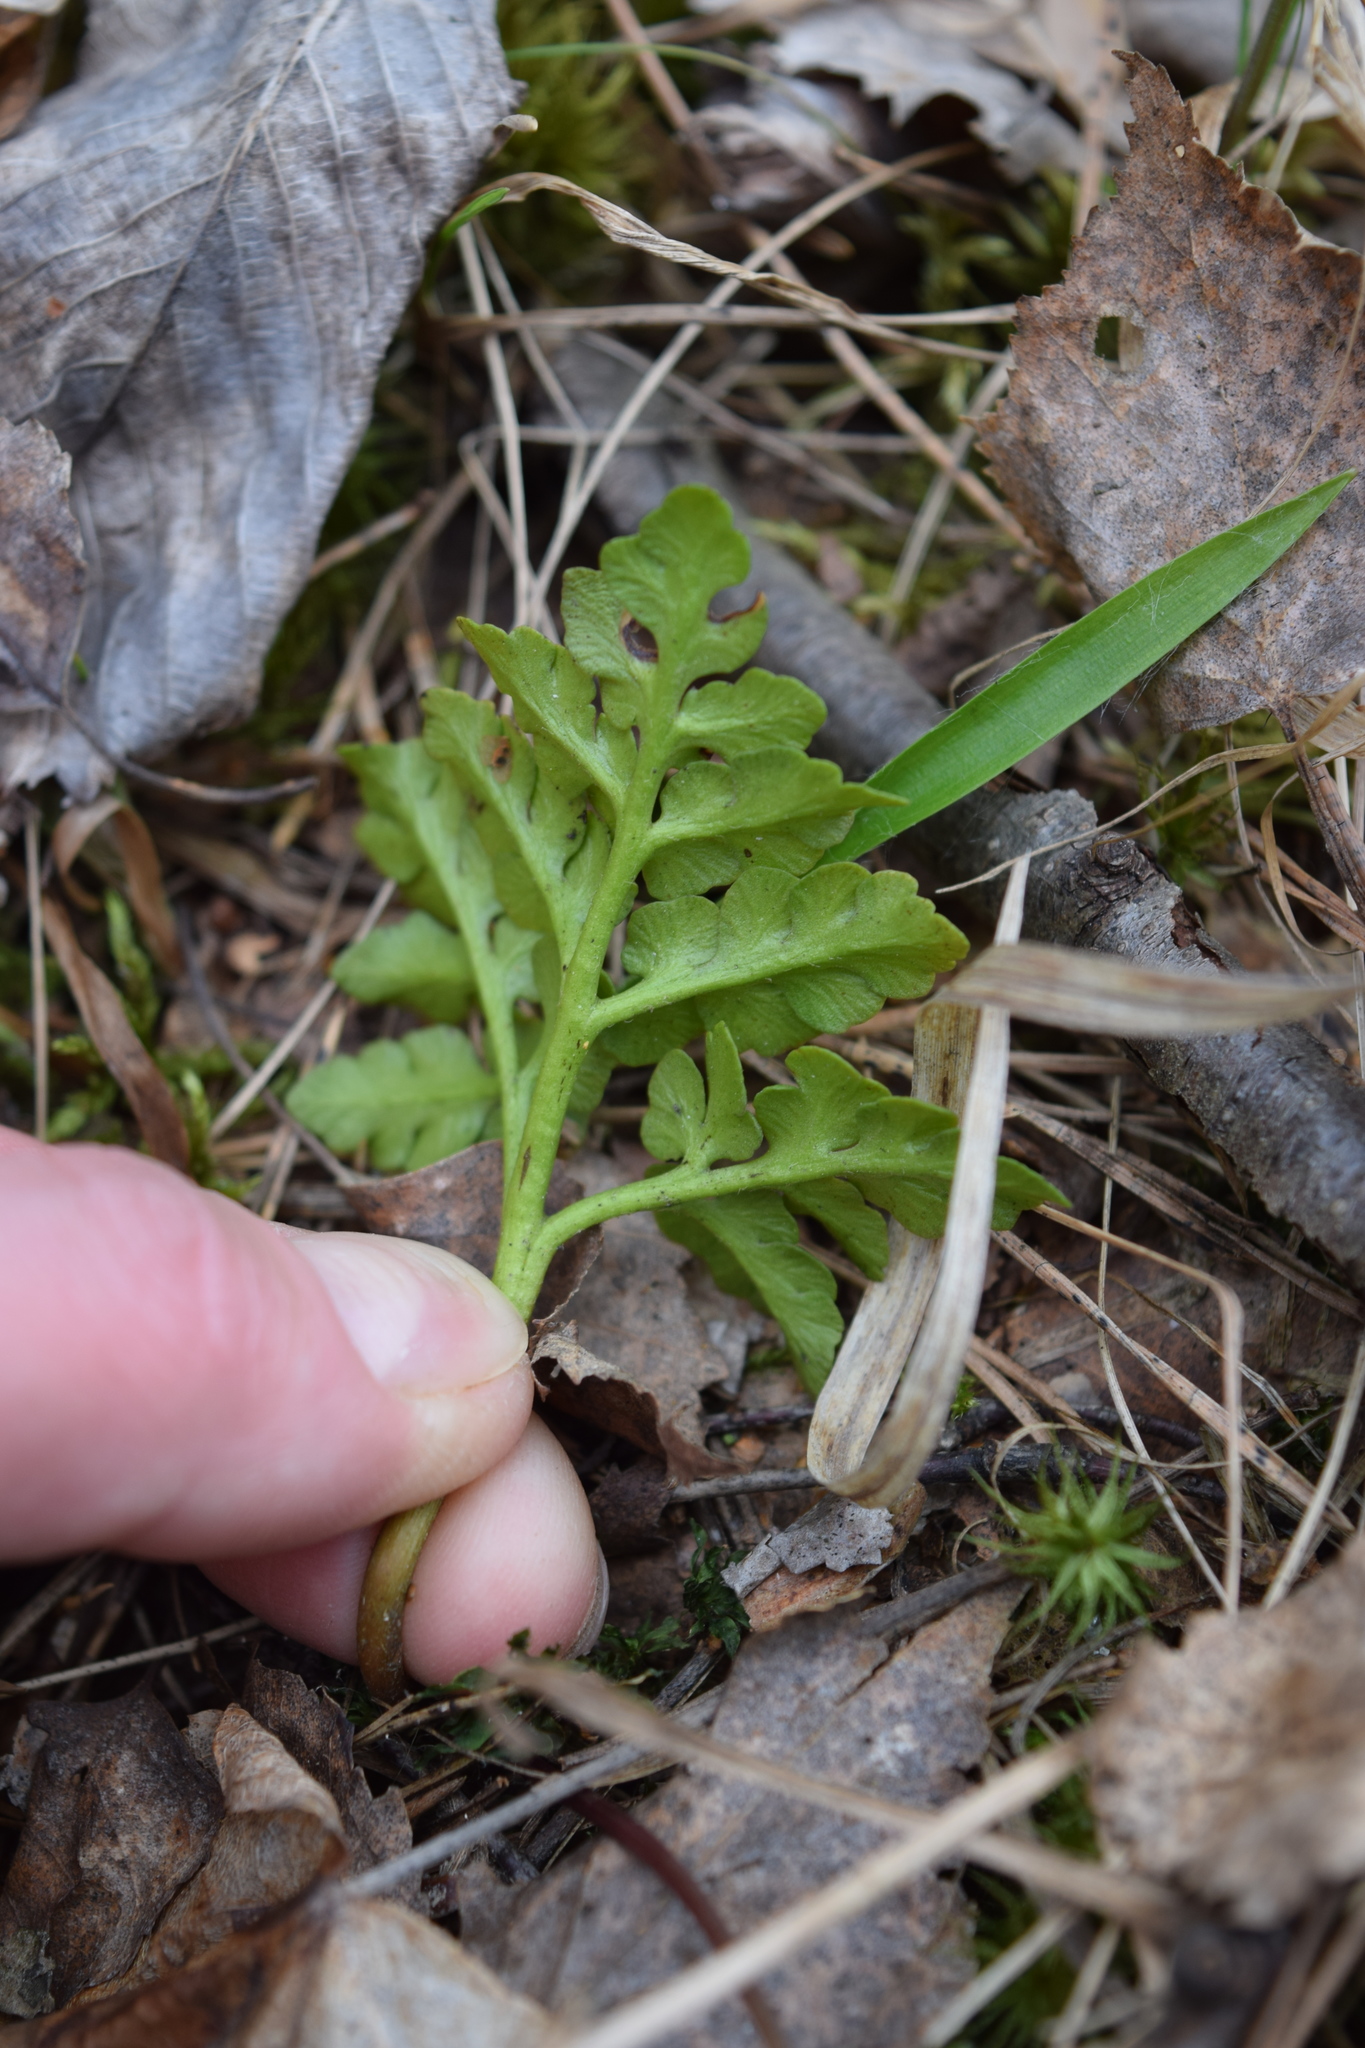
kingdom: Plantae
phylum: Tracheophyta
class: Polypodiopsida
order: Ophioglossales
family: Ophioglossaceae
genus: Sceptridium
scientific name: Sceptridium multifidum
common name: Leathery grape fern
